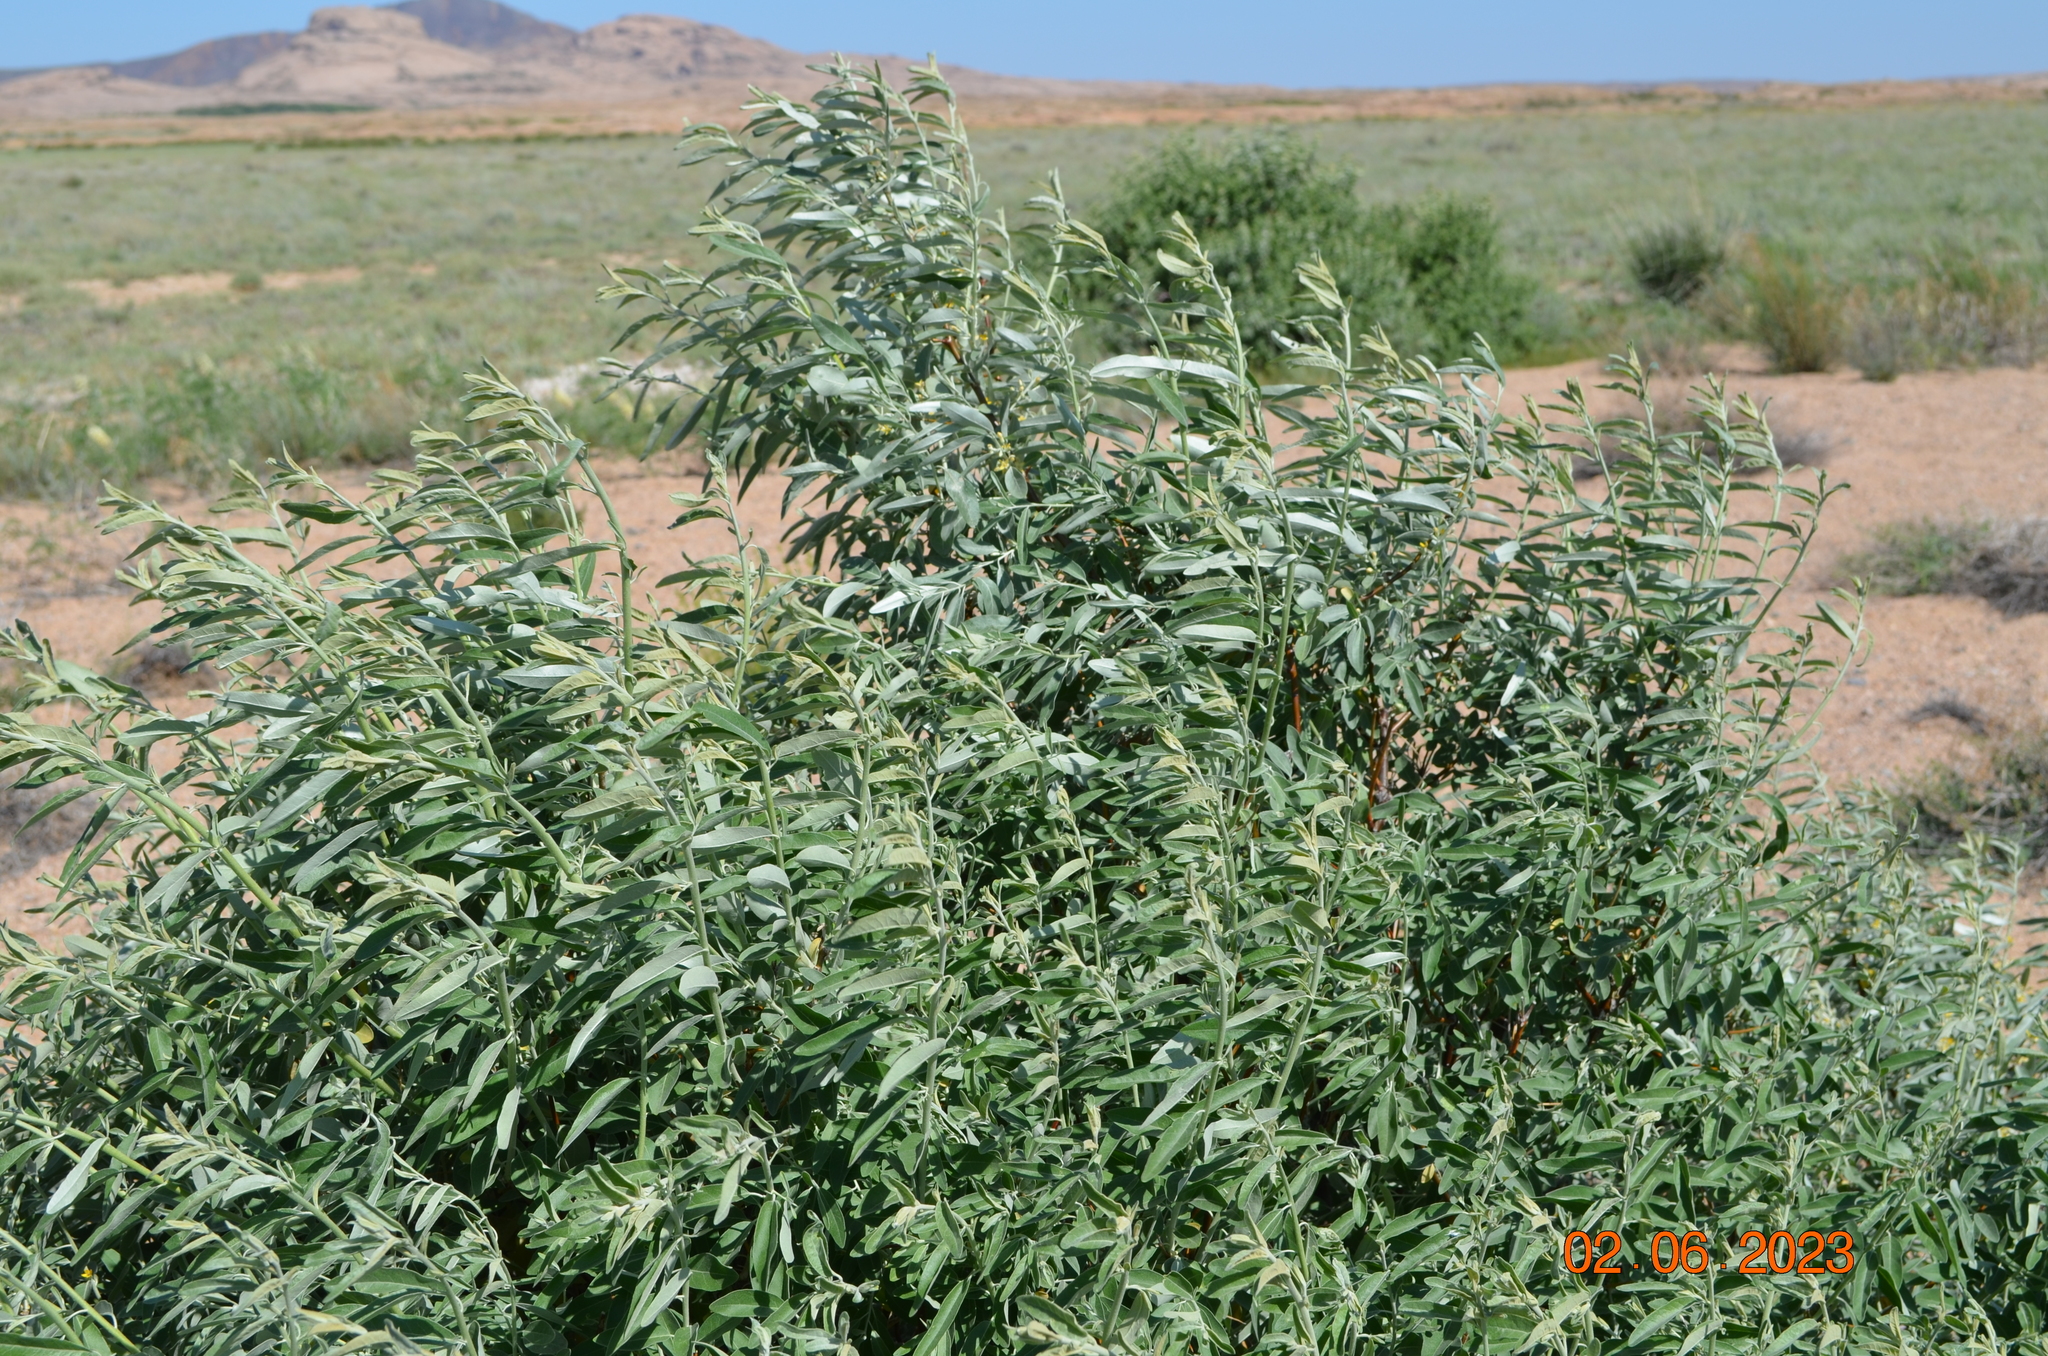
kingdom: Plantae
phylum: Tracheophyta
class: Magnoliopsida
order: Rosales
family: Elaeagnaceae
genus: Elaeagnus
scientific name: Elaeagnus angustifolia
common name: Russian olive
